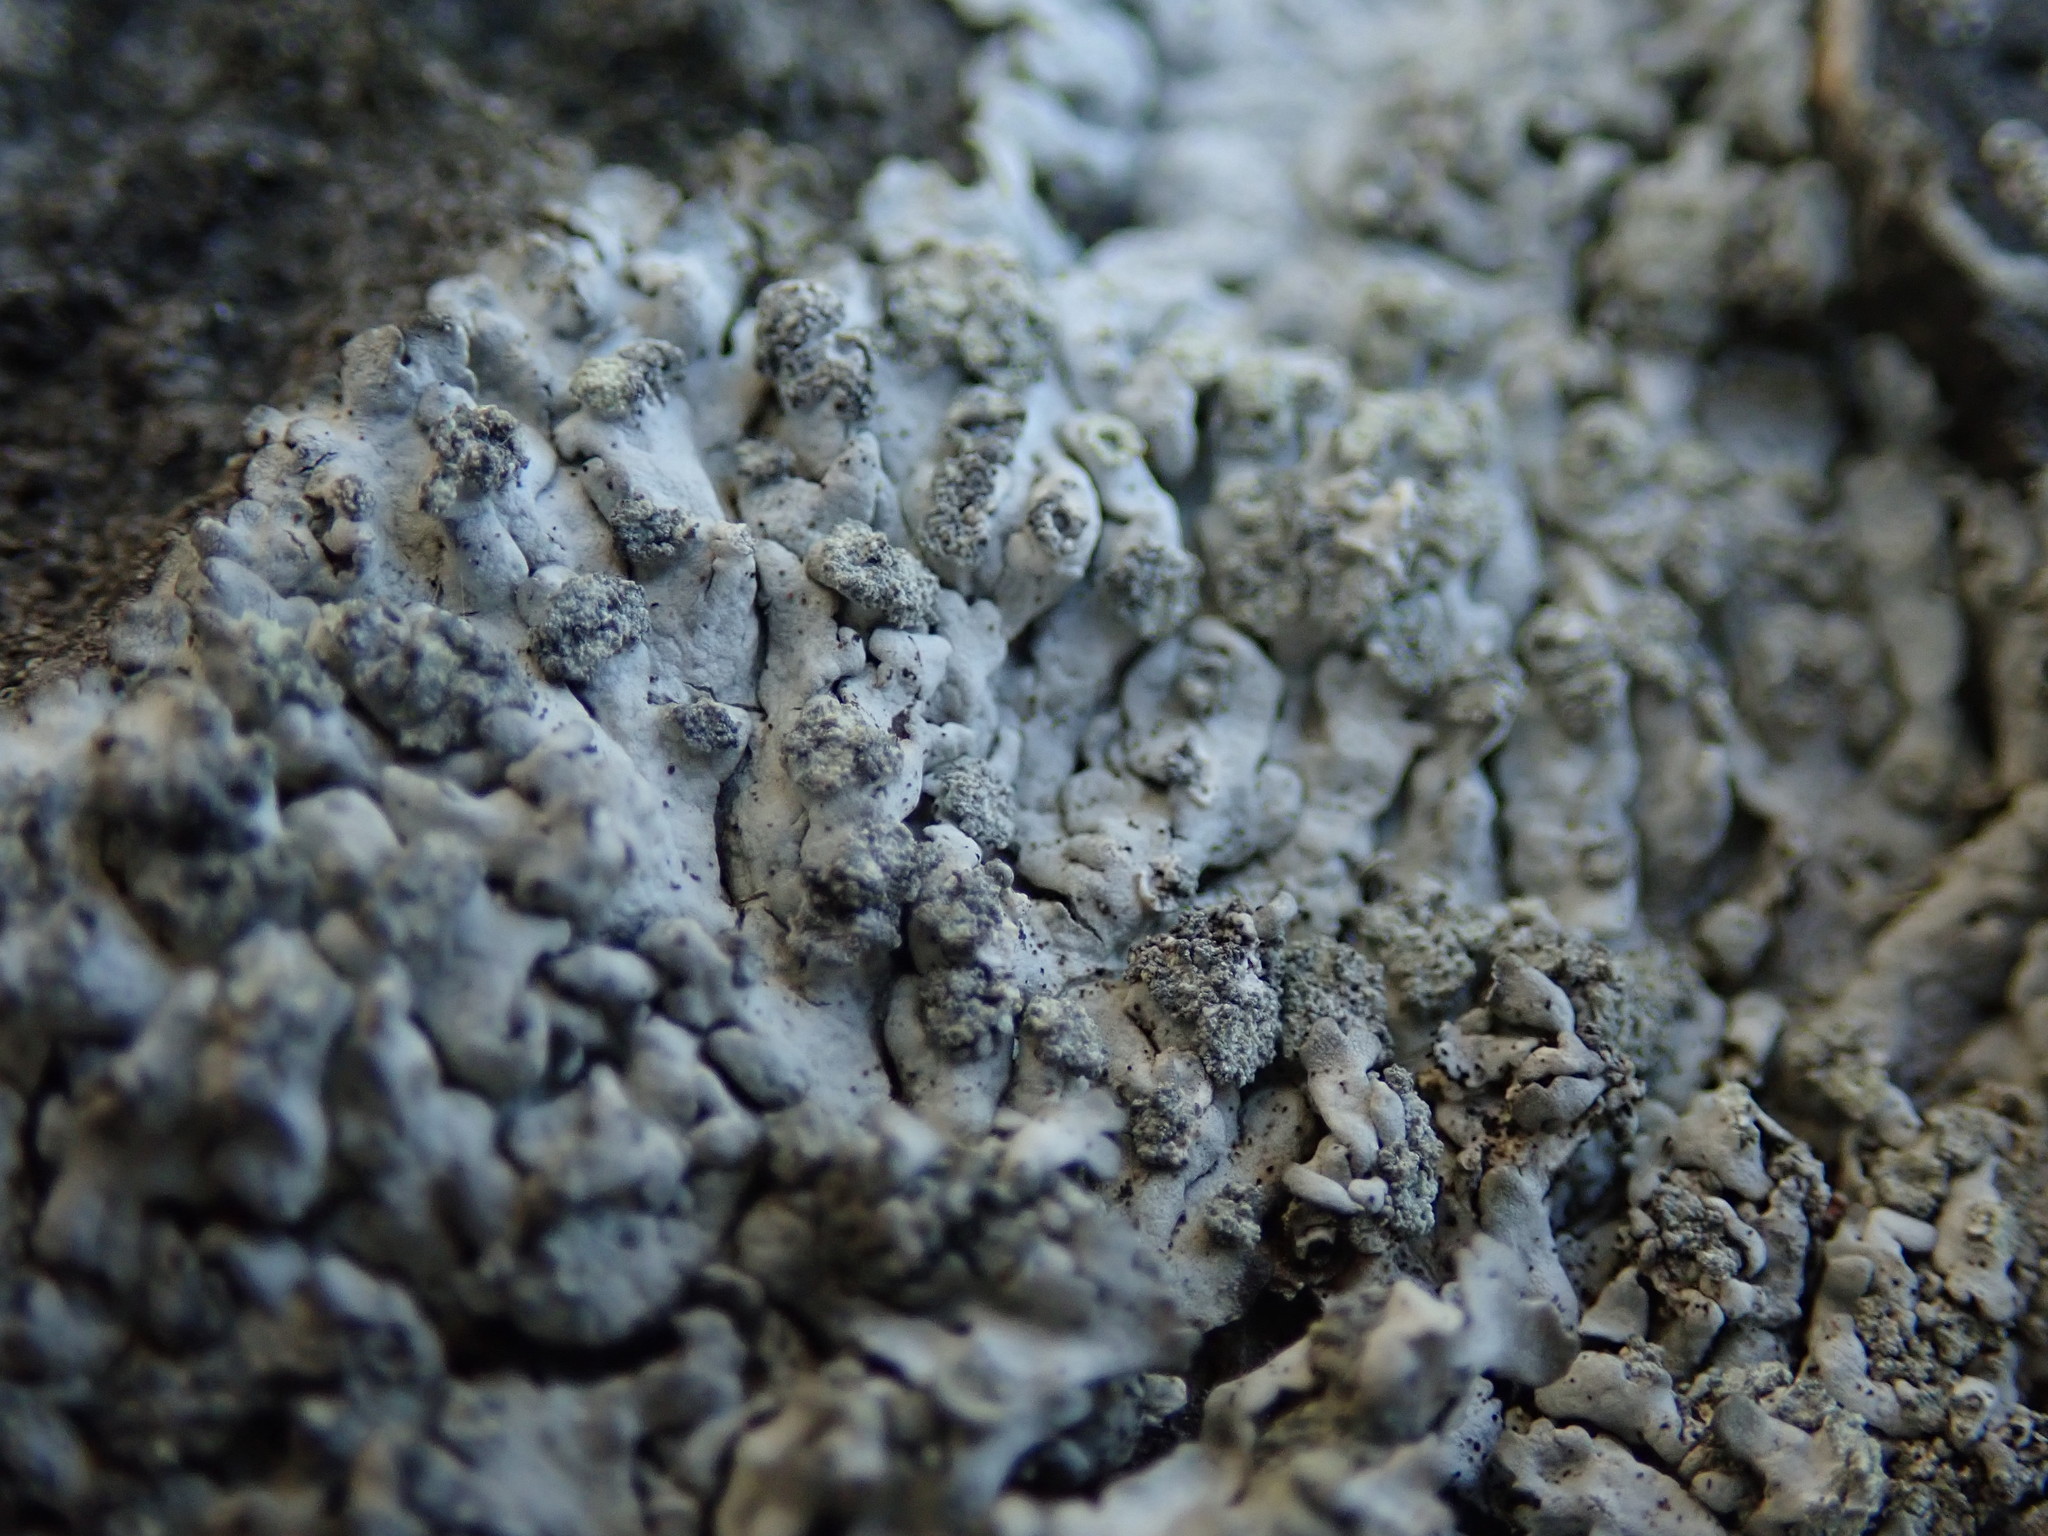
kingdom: Fungi
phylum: Ascomycota
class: Lecanoromycetes
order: Caliciales
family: Physciaceae
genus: Physcia
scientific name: Physcia caesia
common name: Blue-gray rosette lichen
